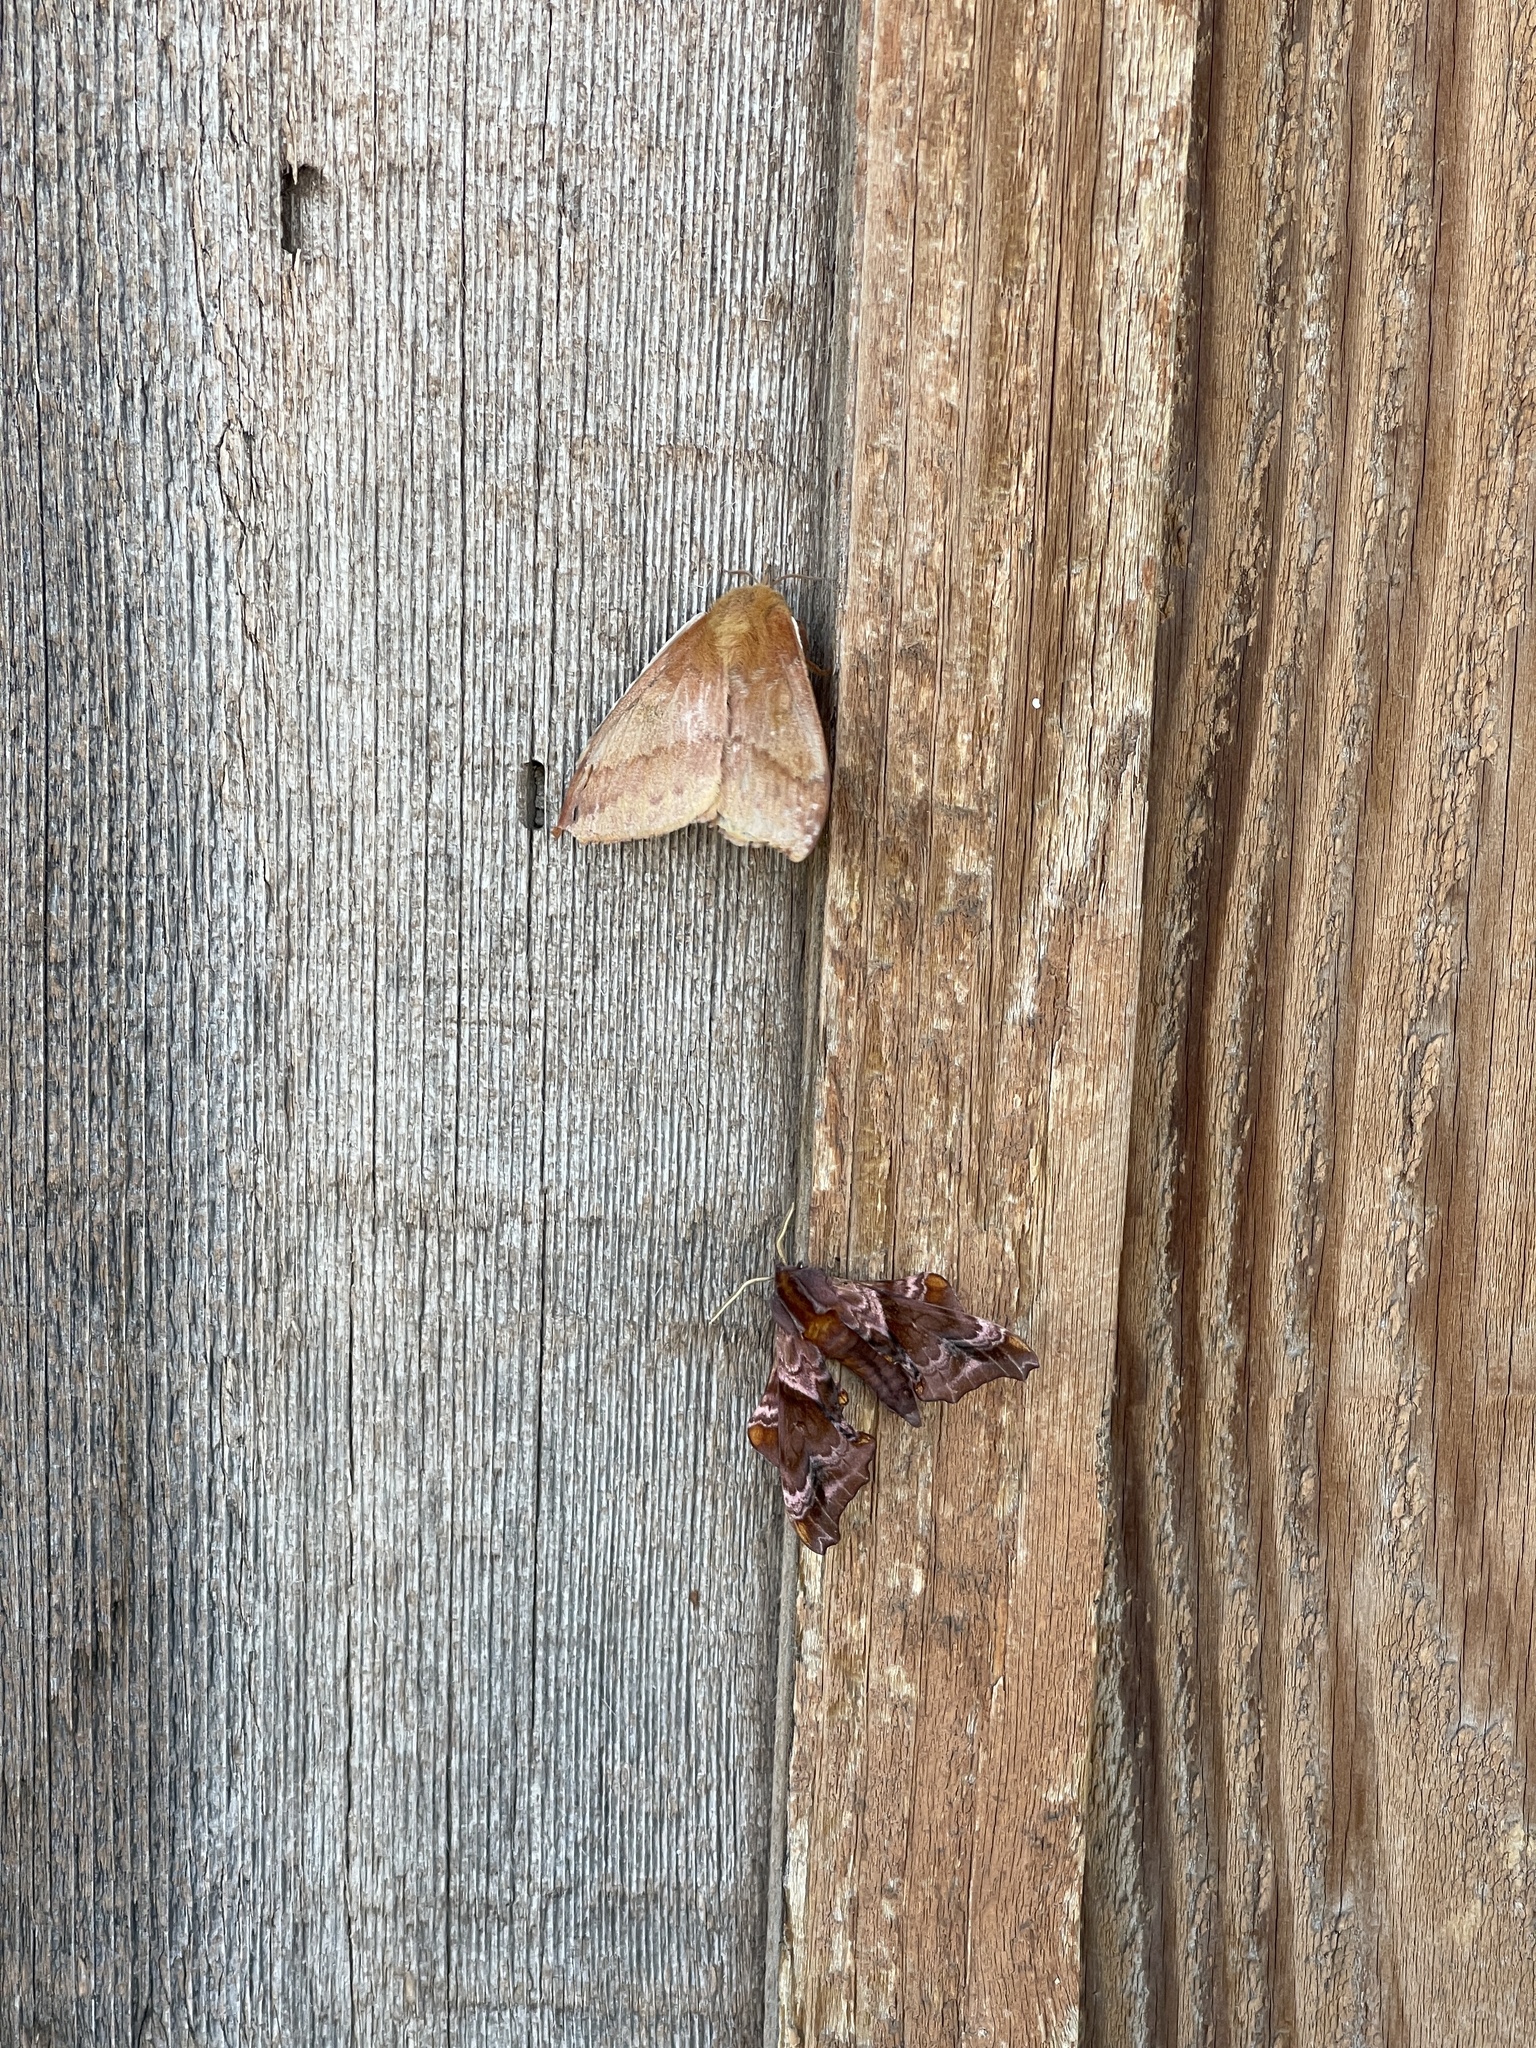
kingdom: Animalia
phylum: Arthropoda
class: Insecta
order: Lepidoptera
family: Saturniidae
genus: Automeris
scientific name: Automeris io
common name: Io moth
